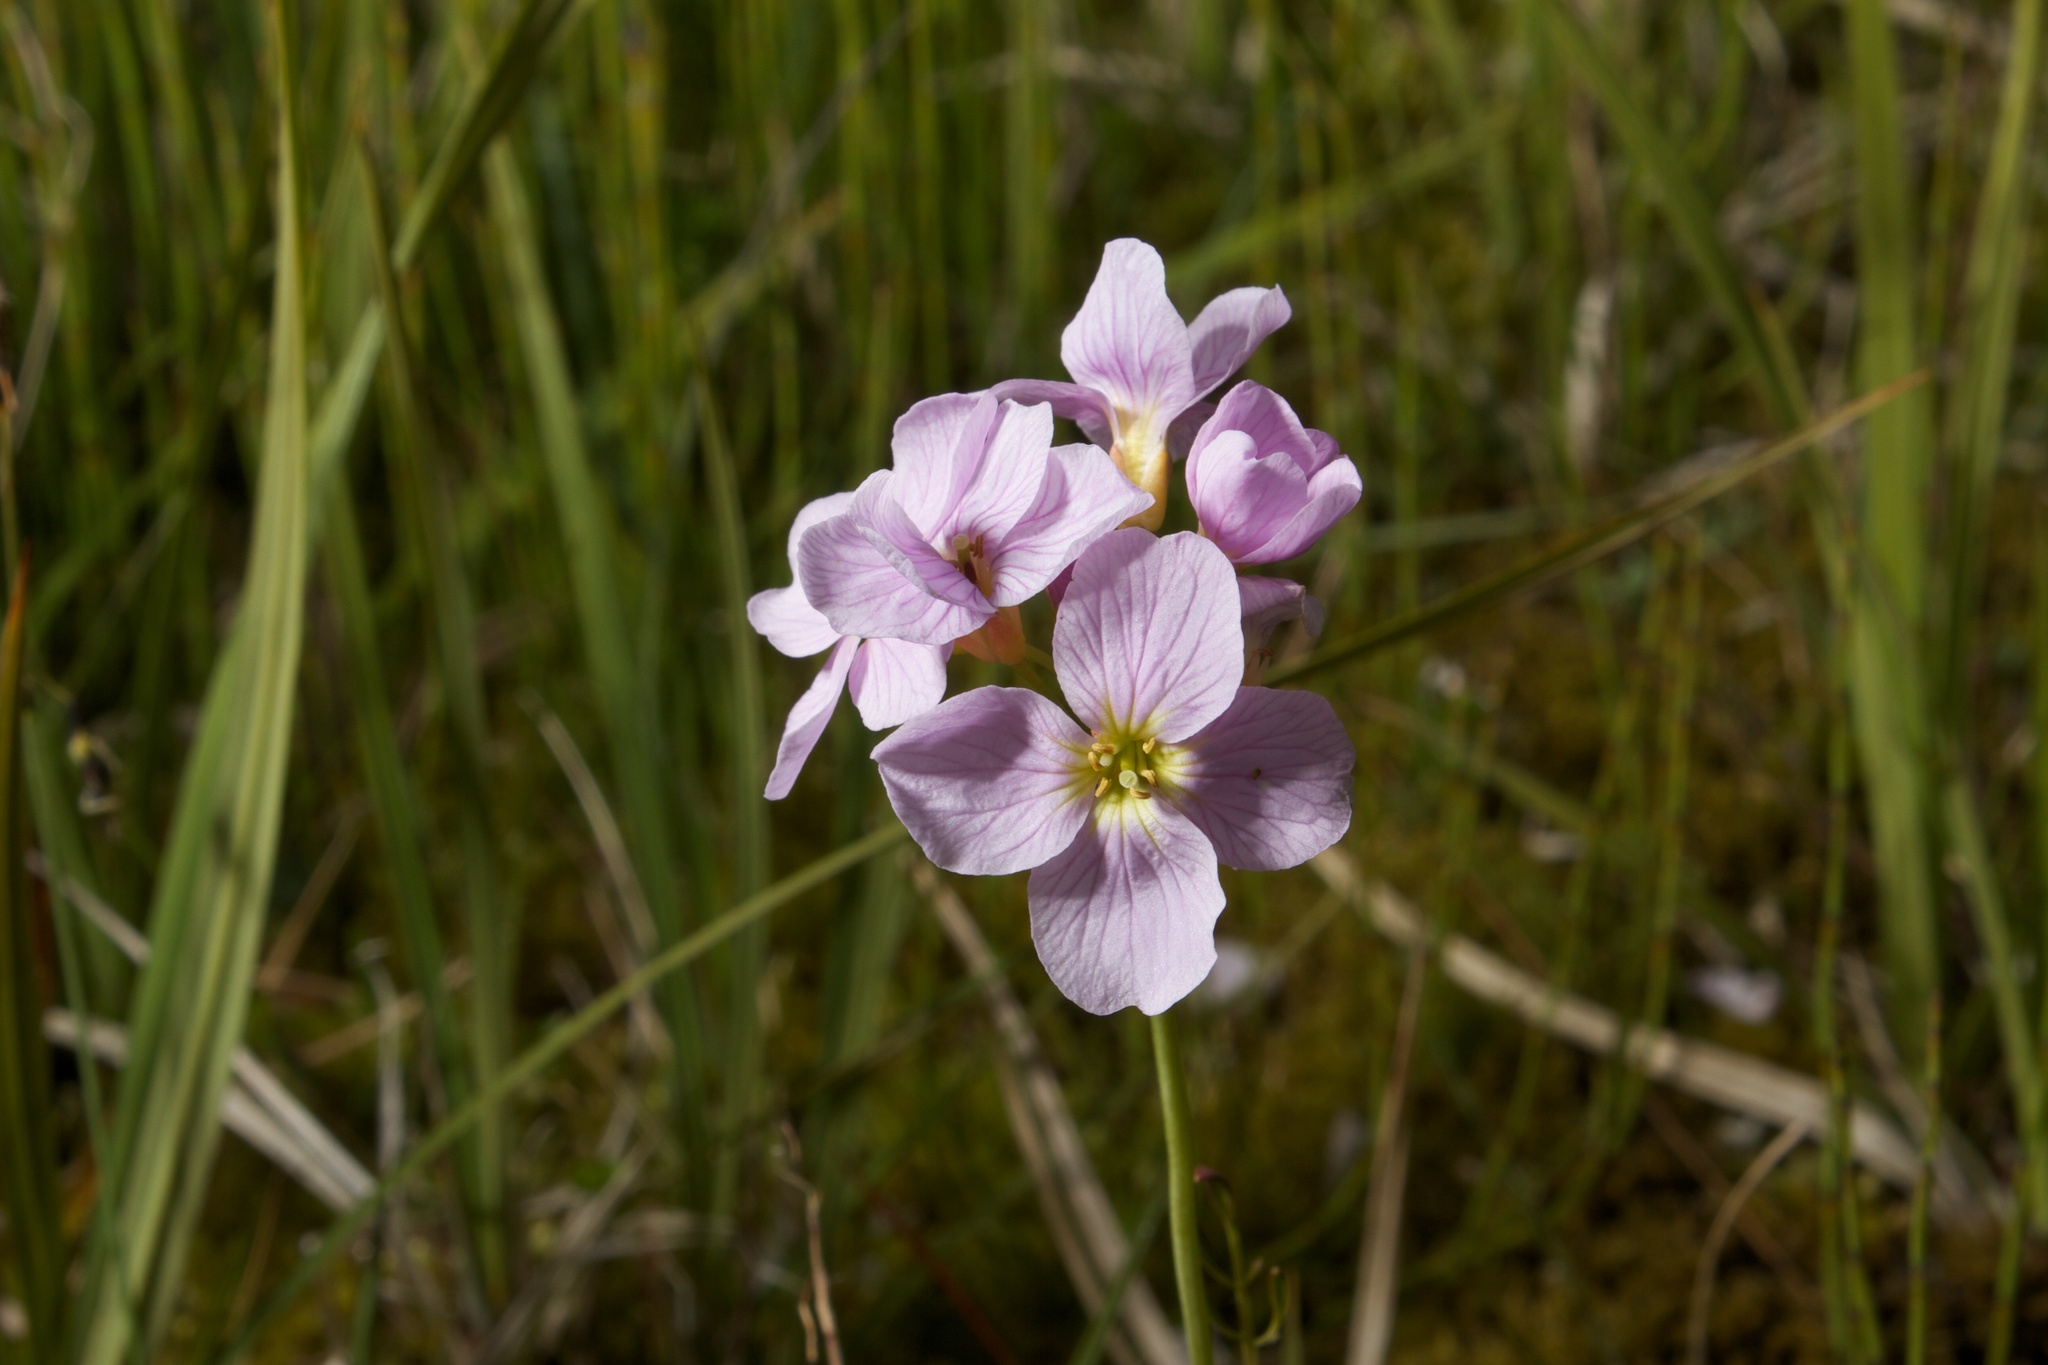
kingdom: Plantae
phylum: Tracheophyta
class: Magnoliopsida
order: Brassicales
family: Brassicaceae
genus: Cardamine
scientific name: Cardamine nymanii
